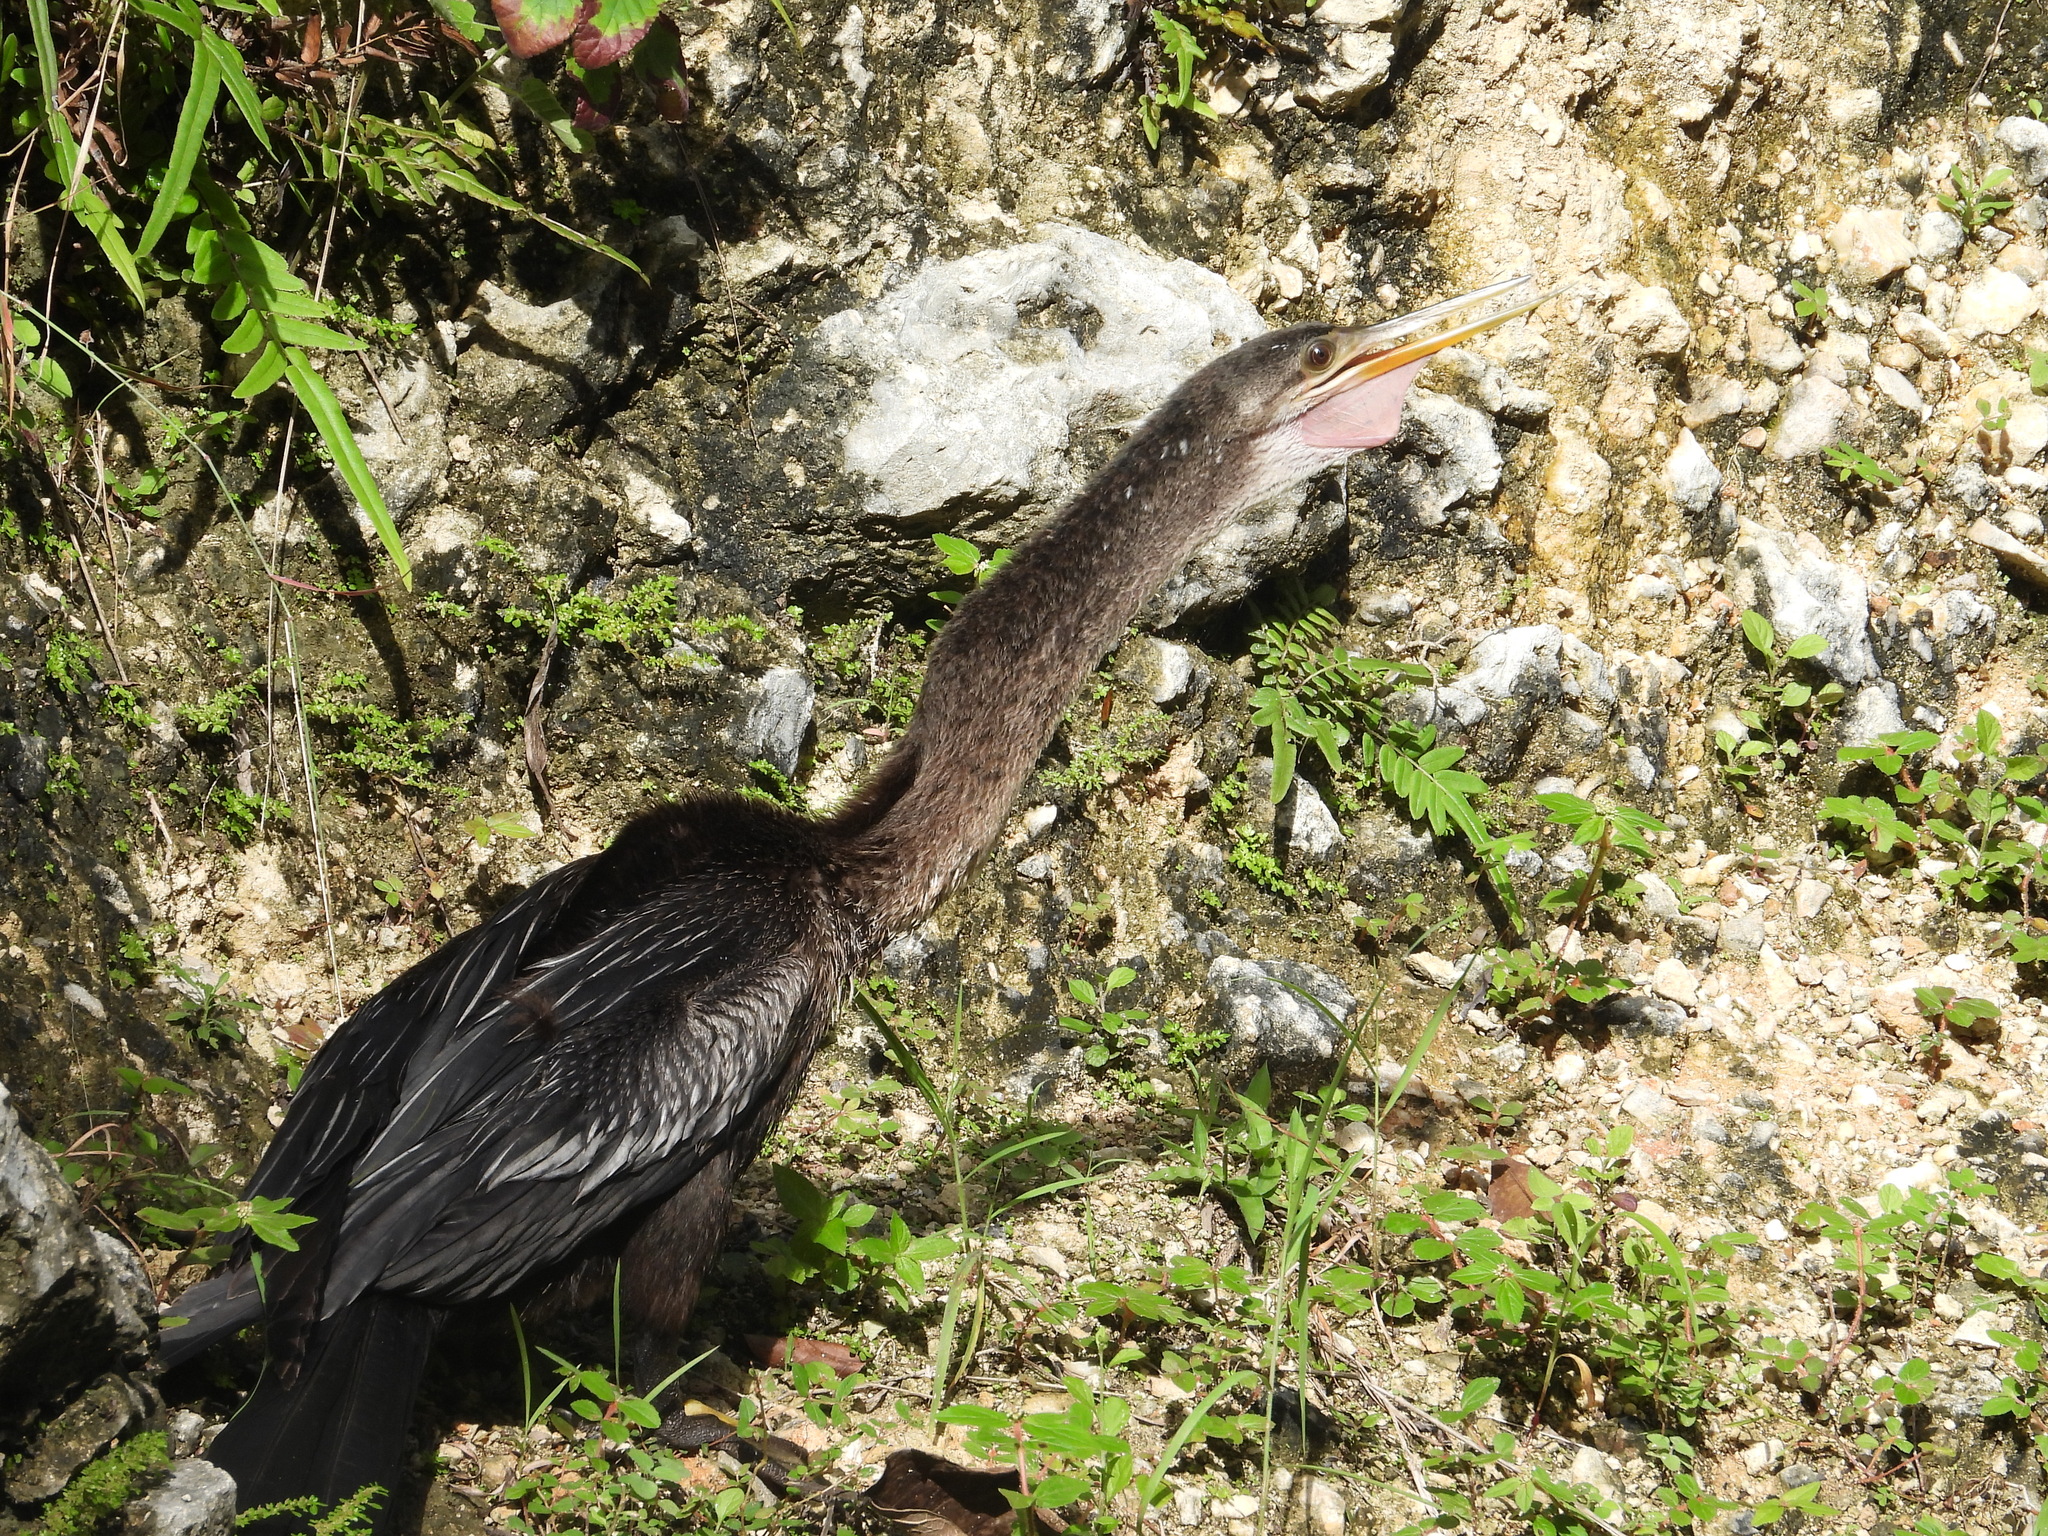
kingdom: Animalia
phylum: Chordata
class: Aves
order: Suliformes
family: Anhingidae
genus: Anhinga
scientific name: Anhinga anhinga
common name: Anhinga
